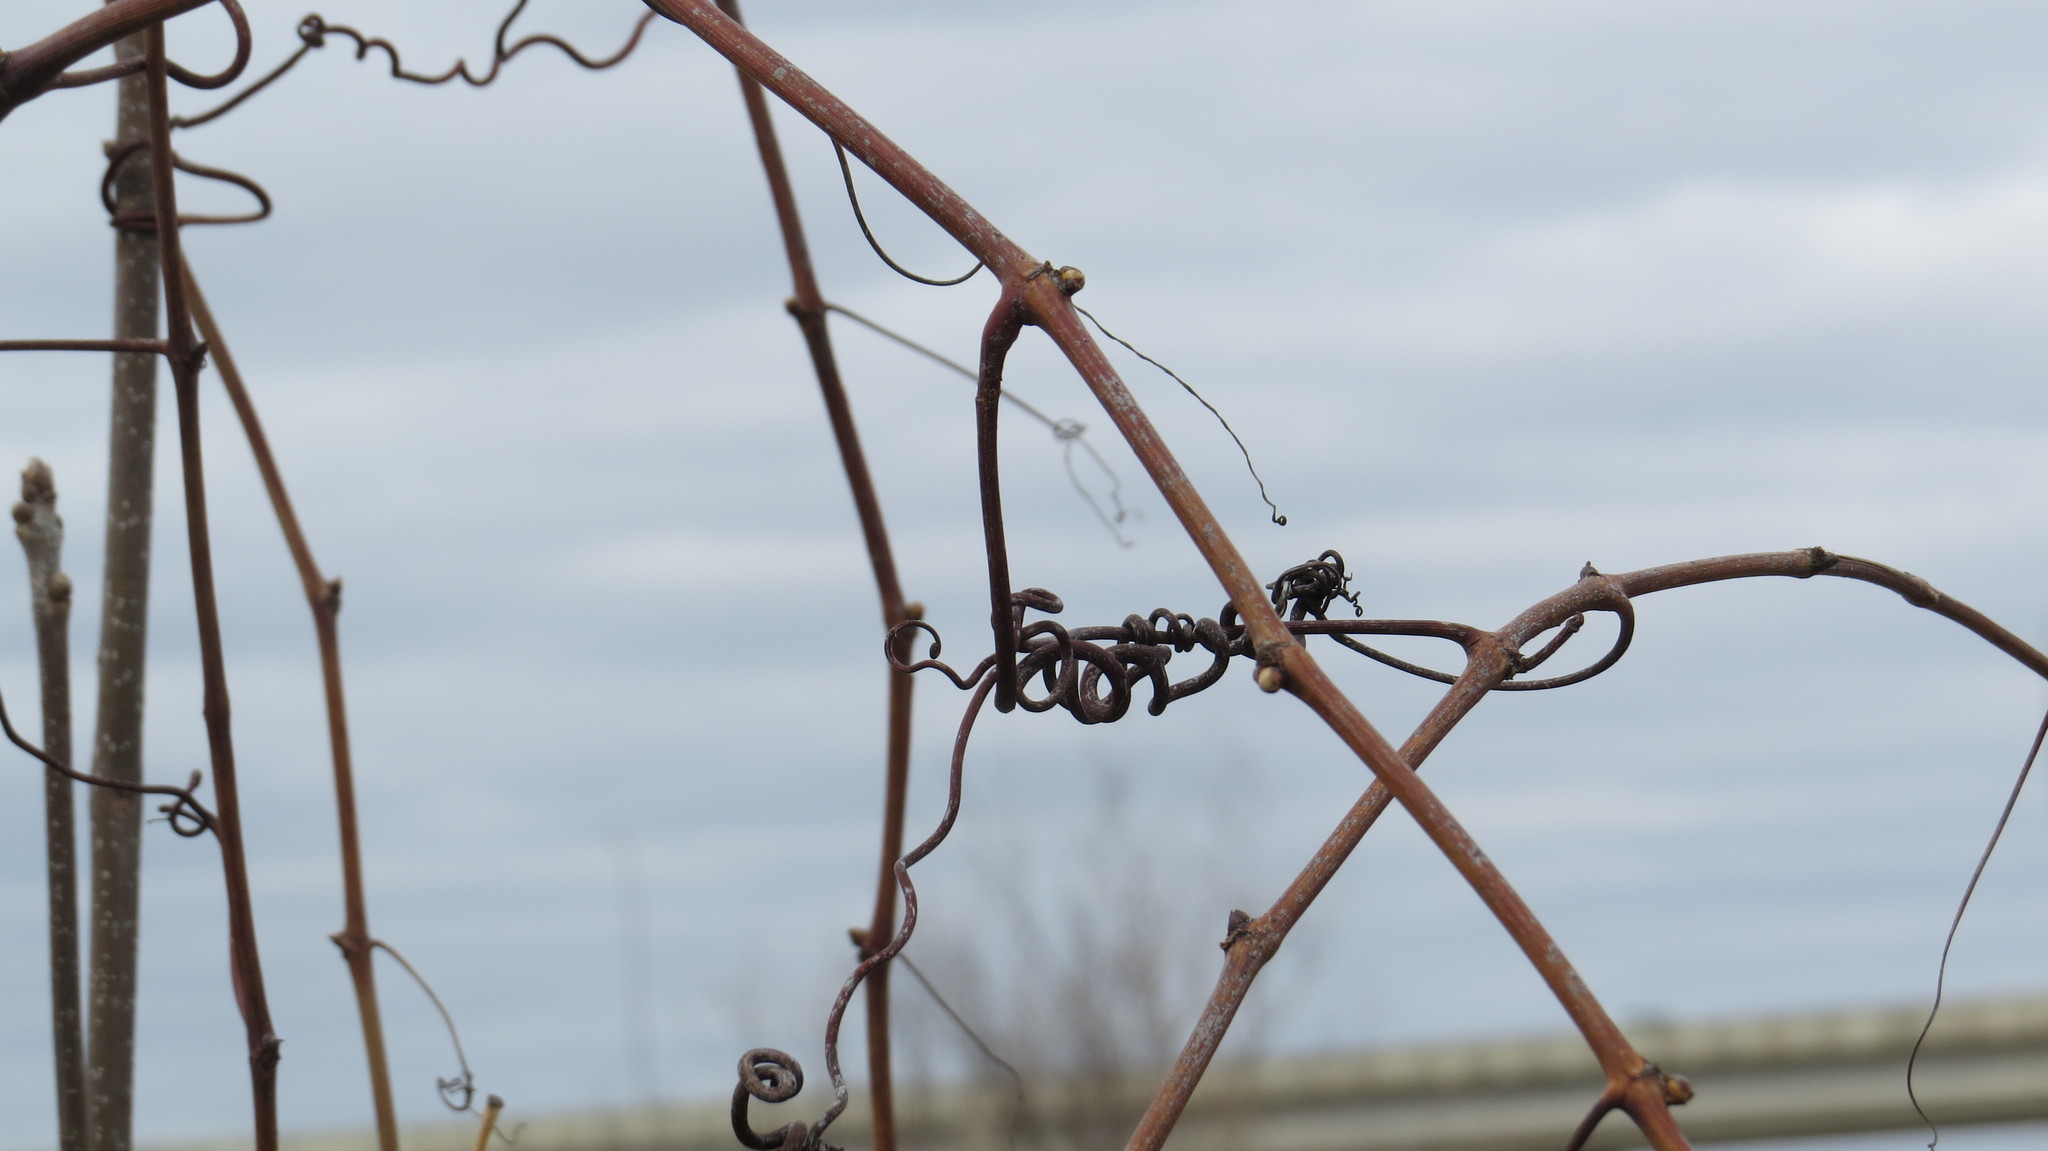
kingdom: Plantae
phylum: Tracheophyta
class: Magnoliopsida
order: Vitales
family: Vitaceae
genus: Vitis
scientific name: Vitis riparia
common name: Frost grape
